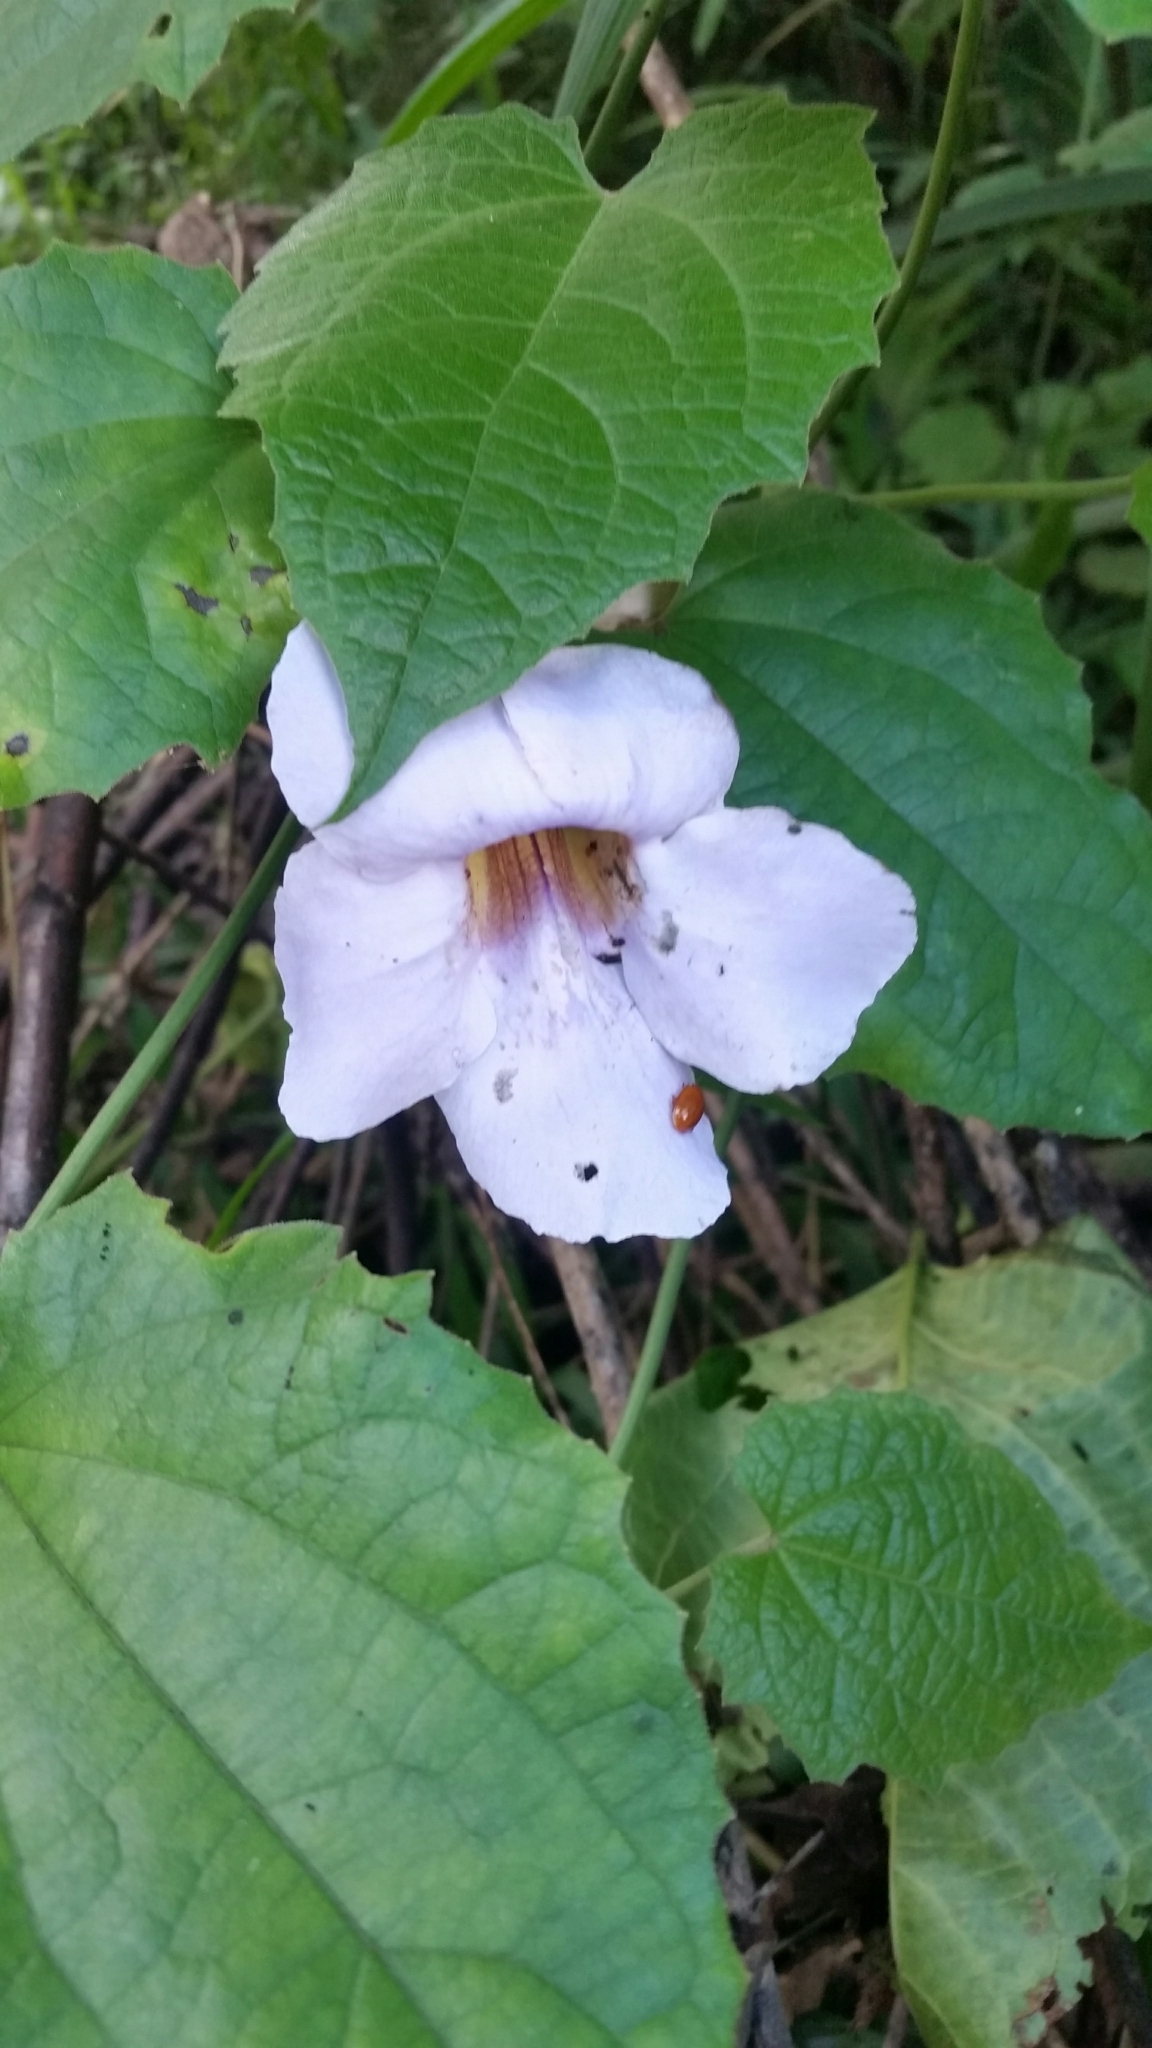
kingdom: Plantae
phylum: Tracheophyta
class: Magnoliopsida
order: Lamiales
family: Acanthaceae
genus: Thunbergia
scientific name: Thunbergia grandiflora
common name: Bengal trumpet
